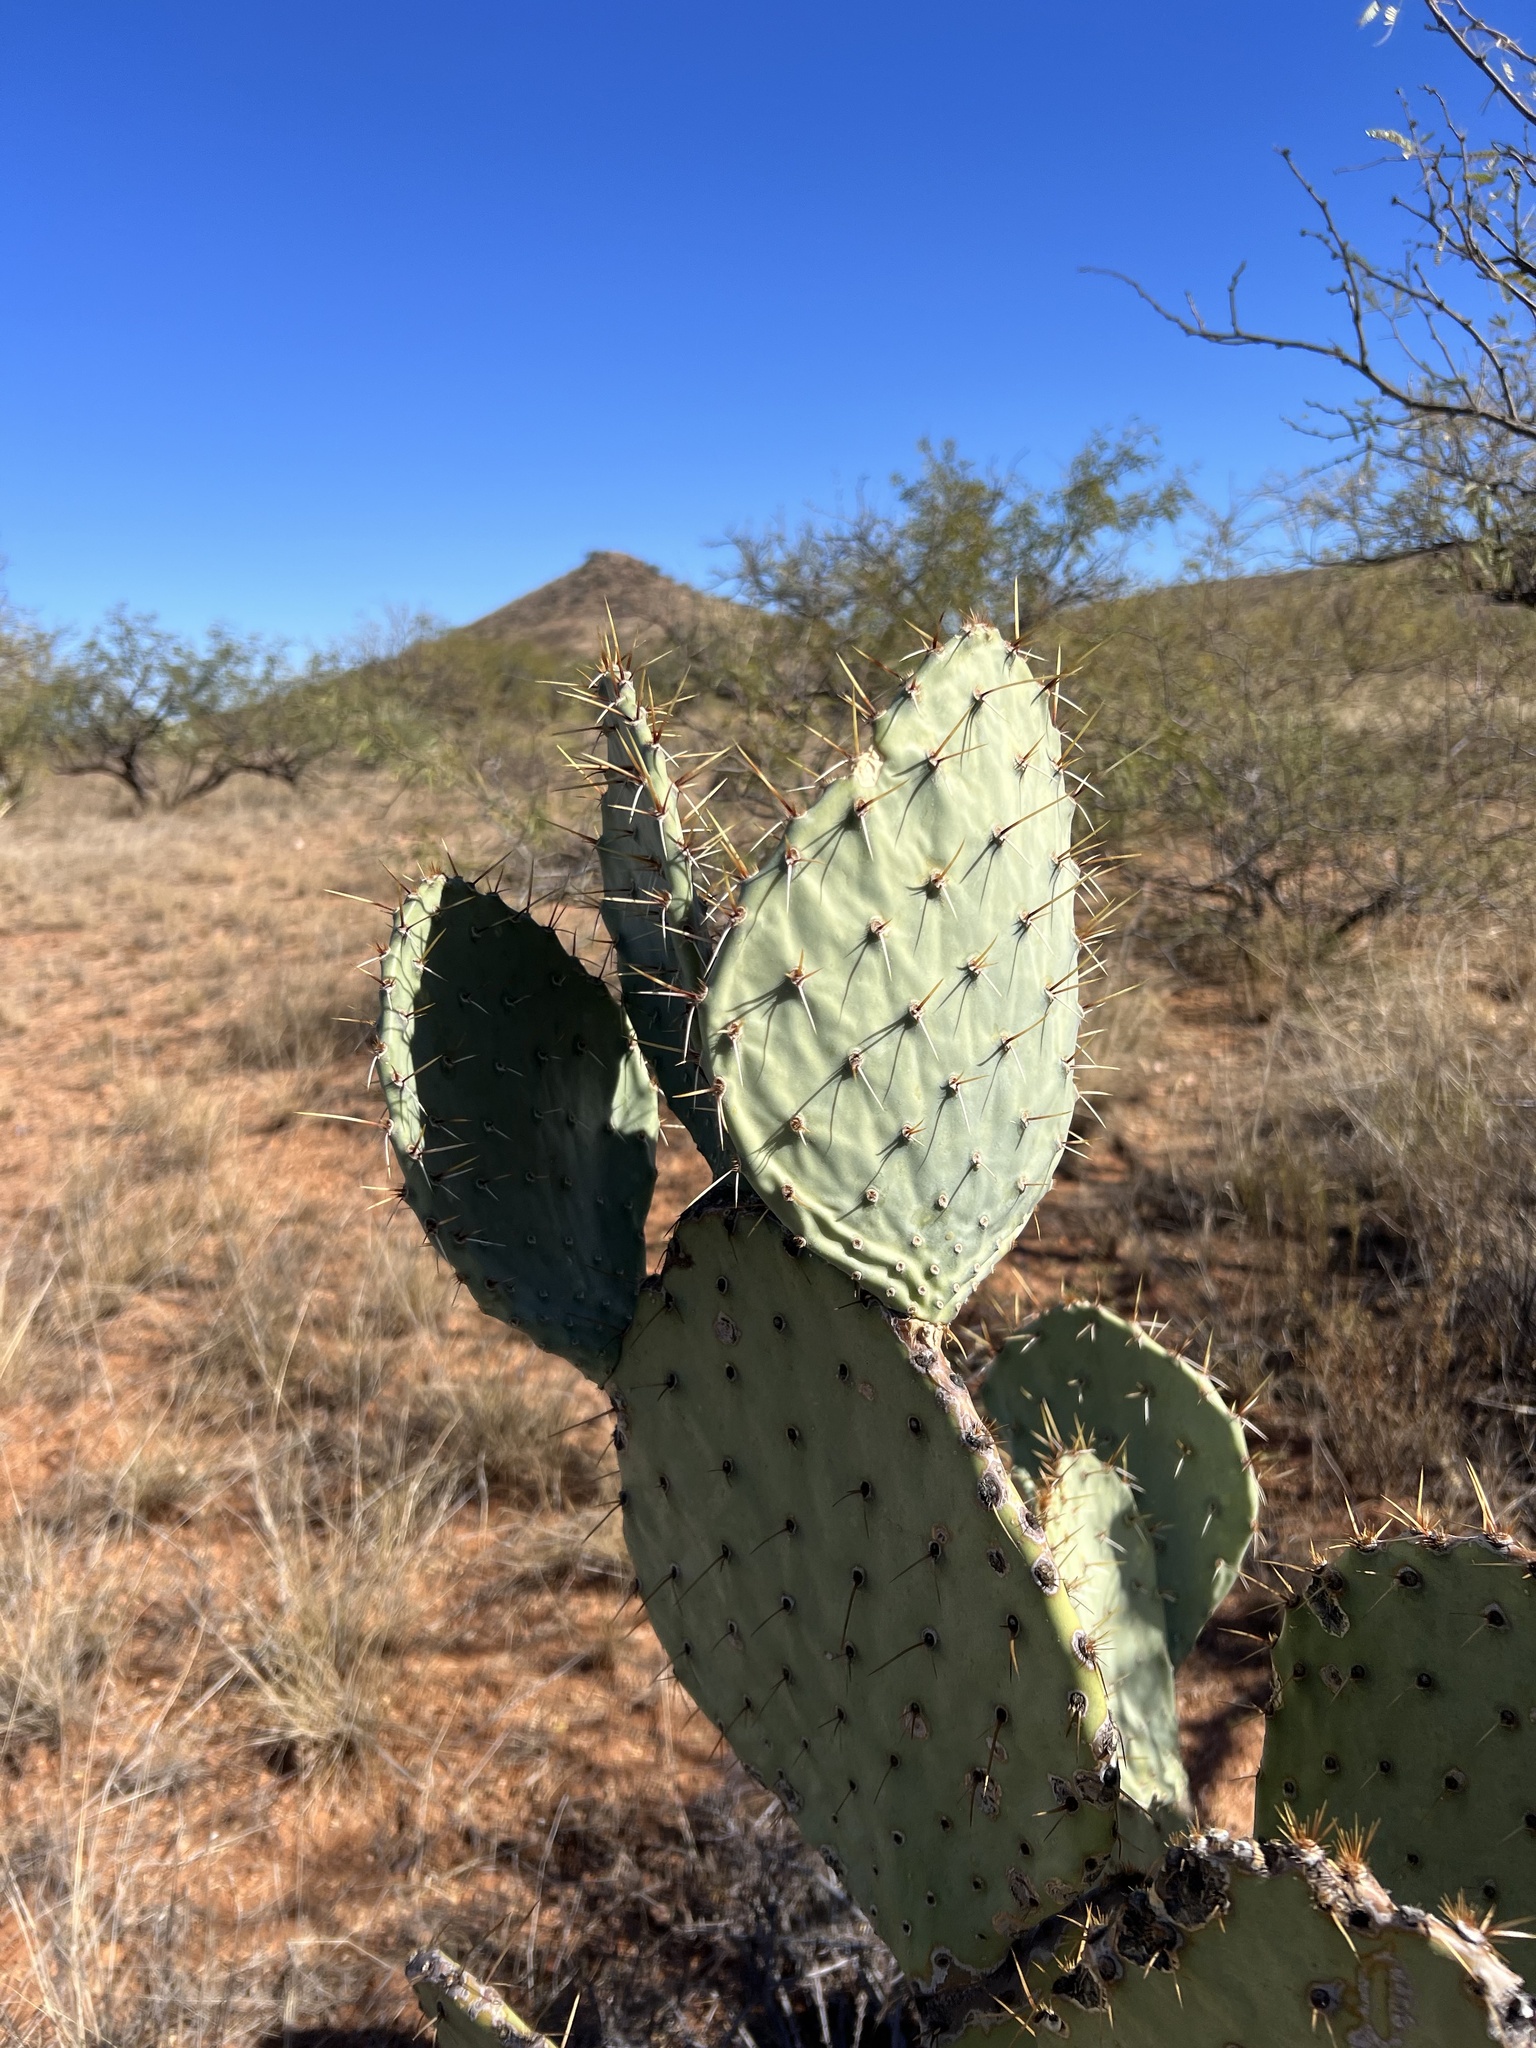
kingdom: Plantae
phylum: Tracheophyta
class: Magnoliopsida
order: Caryophyllales
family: Cactaceae
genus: Opuntia
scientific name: Opuntia engelmannii
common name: Cactus-apple
